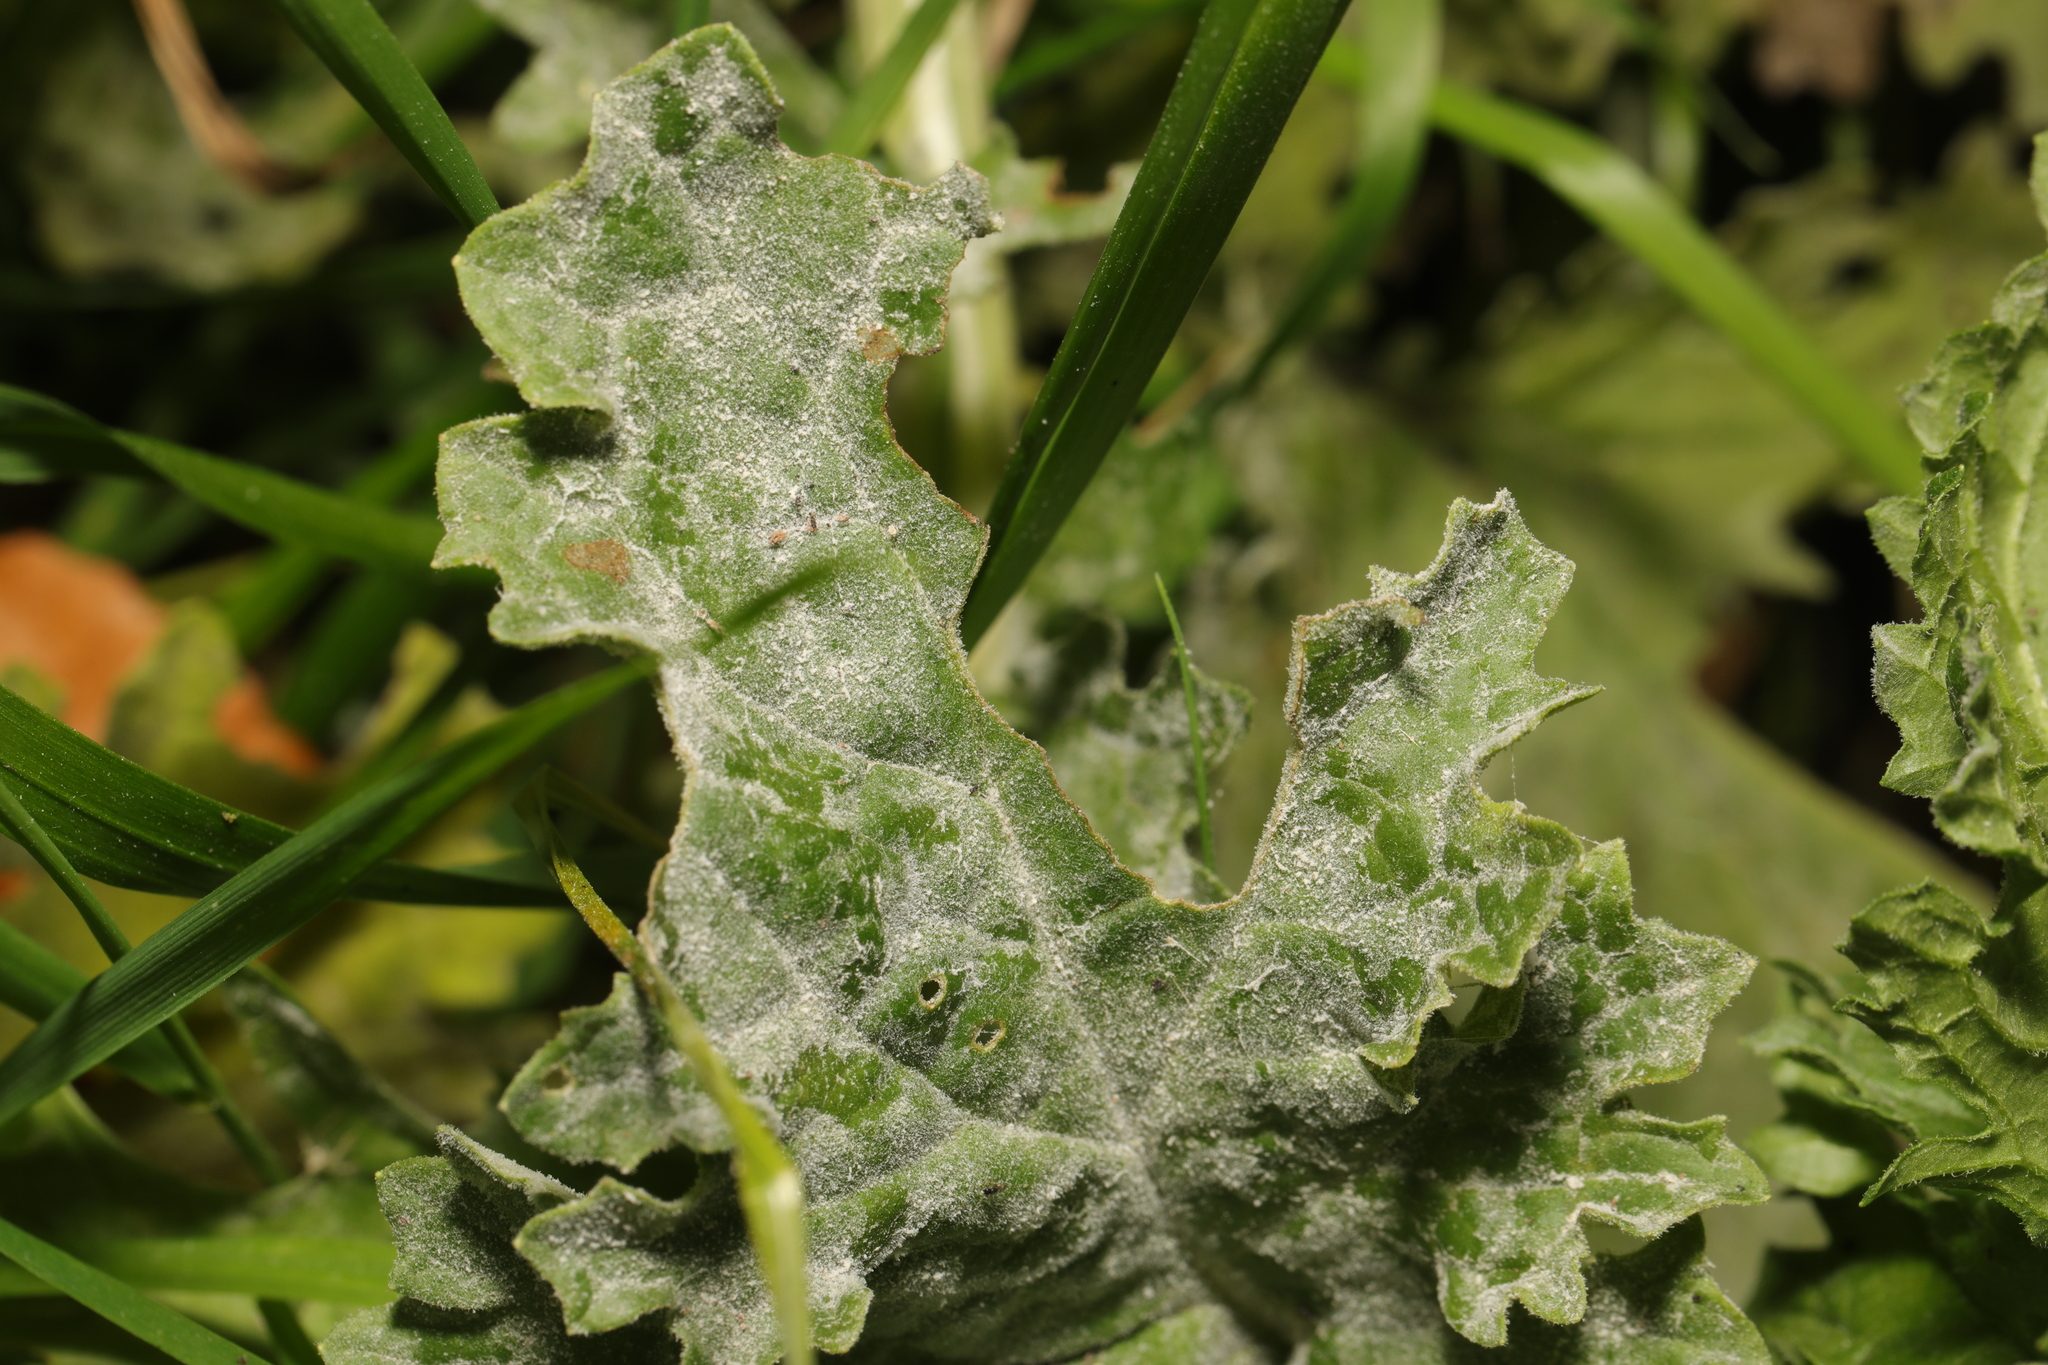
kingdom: Fungi
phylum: Ascomycota
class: Leotiomycetes
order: Helotiales
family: Erysiphaceae
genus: Erysiphe
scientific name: Erysiphe heraclei
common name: Umbellifer mildew
